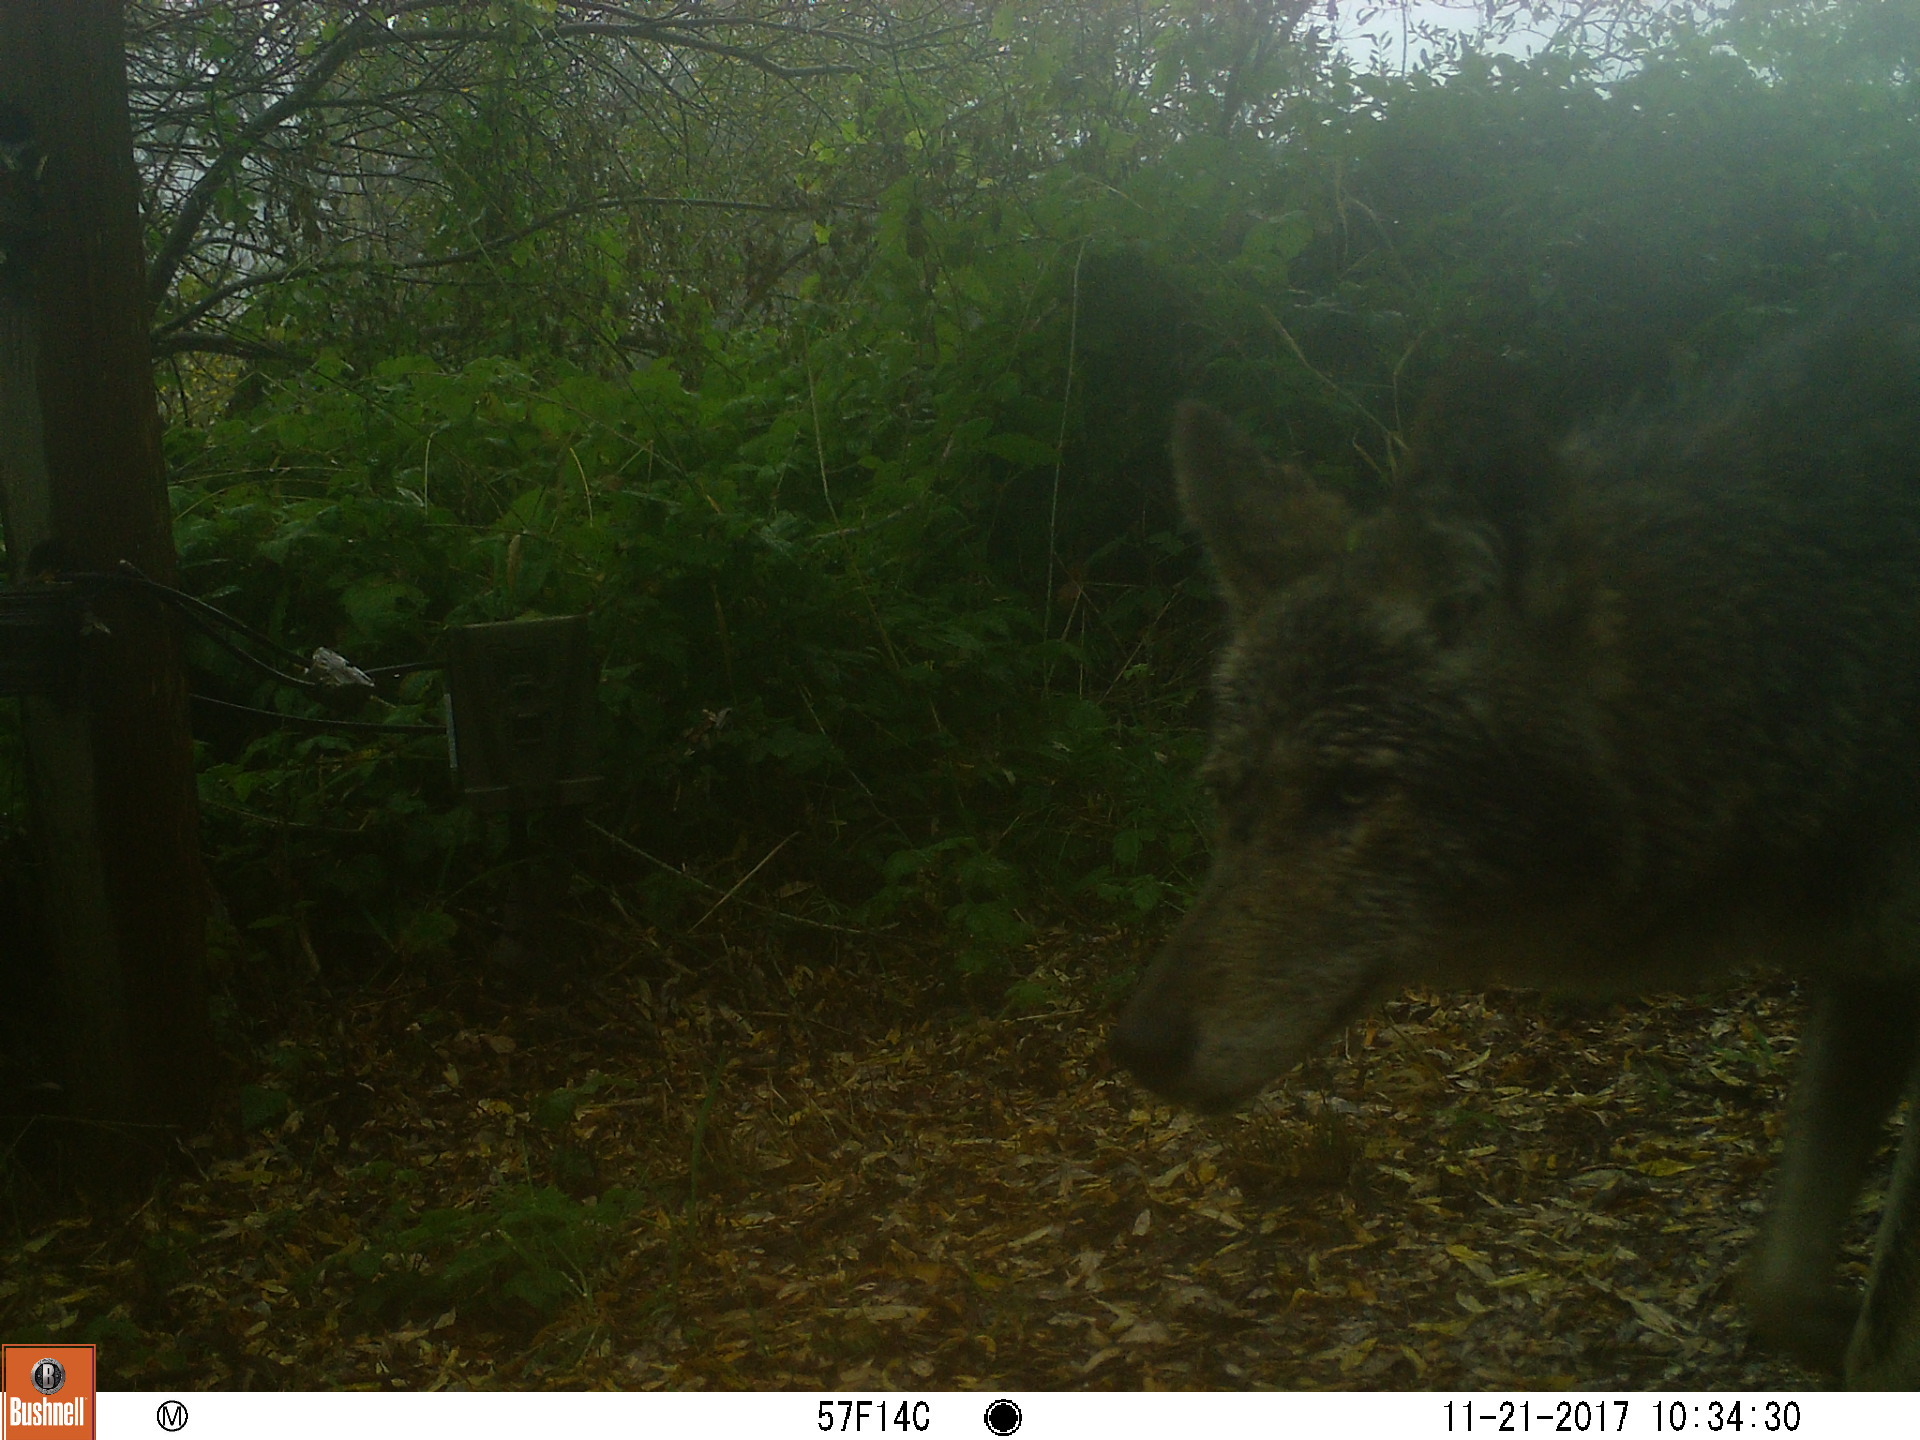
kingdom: Animalia
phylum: Chordata
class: Mammalia
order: Carnivora
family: Canidae
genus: Canis
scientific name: Canis latrans
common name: Coyote
